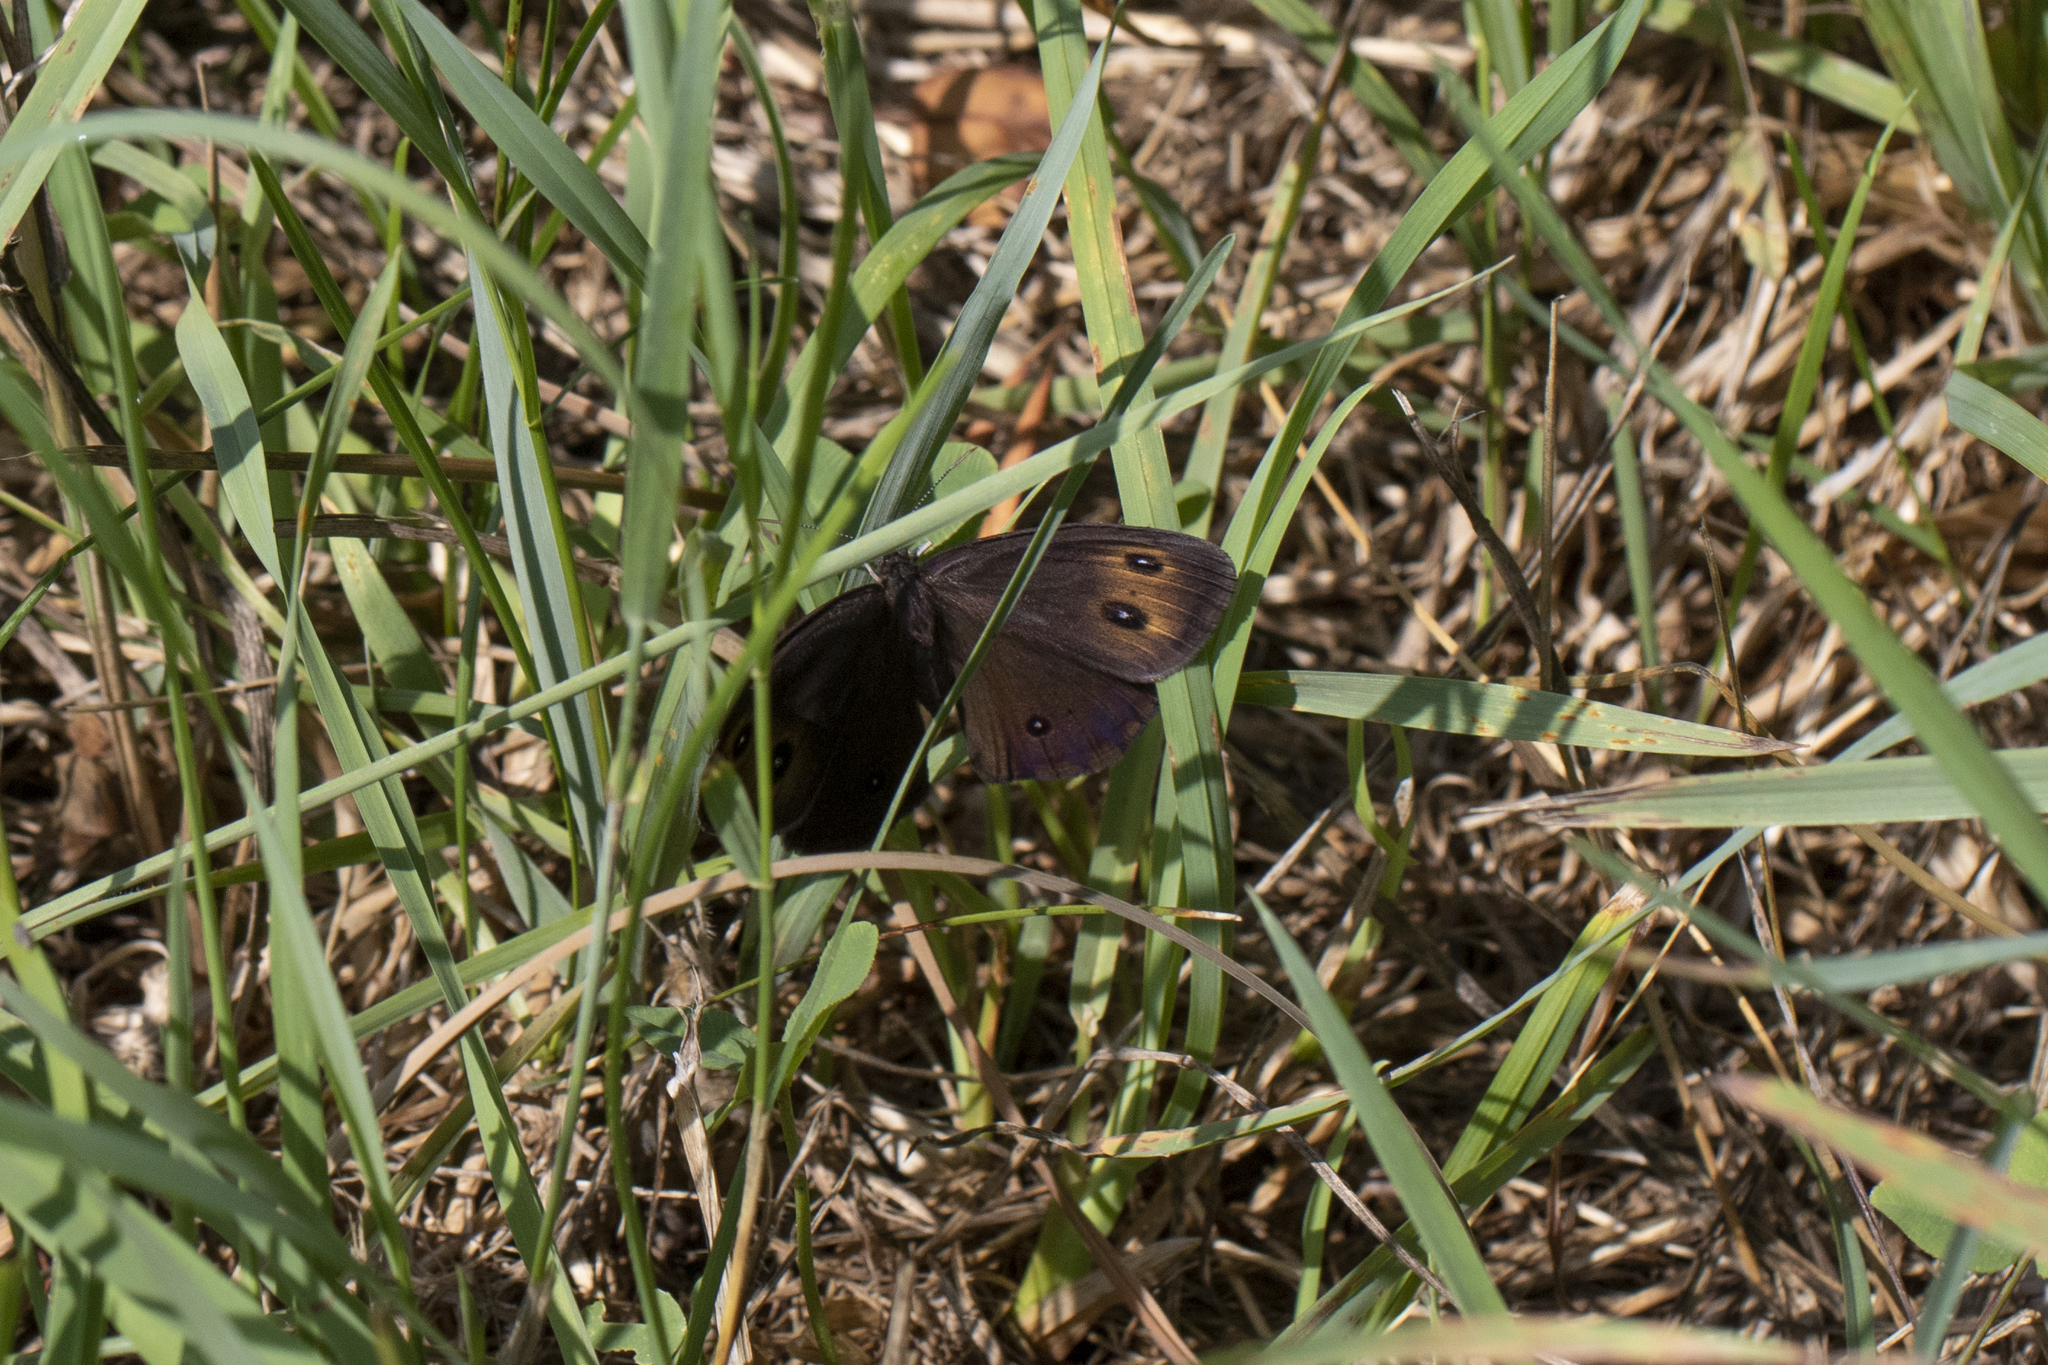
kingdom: Animalia
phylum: Arthropoda
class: Insecta
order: Lepidoptera
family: Nymphalidae
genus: Cercyonis
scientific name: Cercyonis pegala
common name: Common wood-nymph
